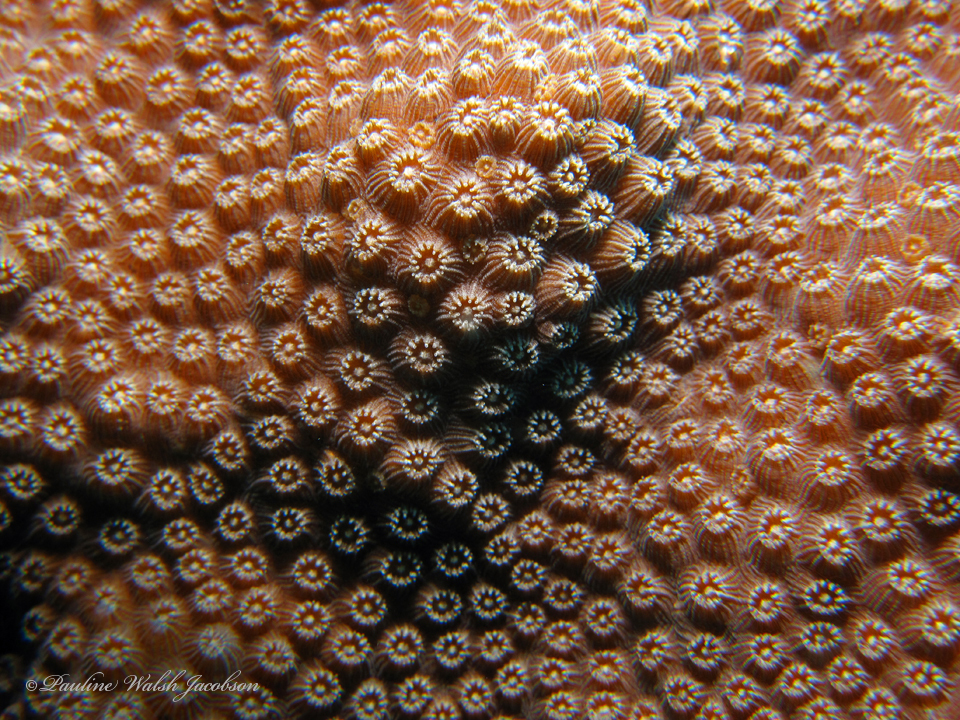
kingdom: Animalia
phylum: Cnidaria
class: Anthozoa
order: Scleractinia
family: Merulinidae
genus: Orbicella
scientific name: Orbicella faveolata
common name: Mountainous star coral
